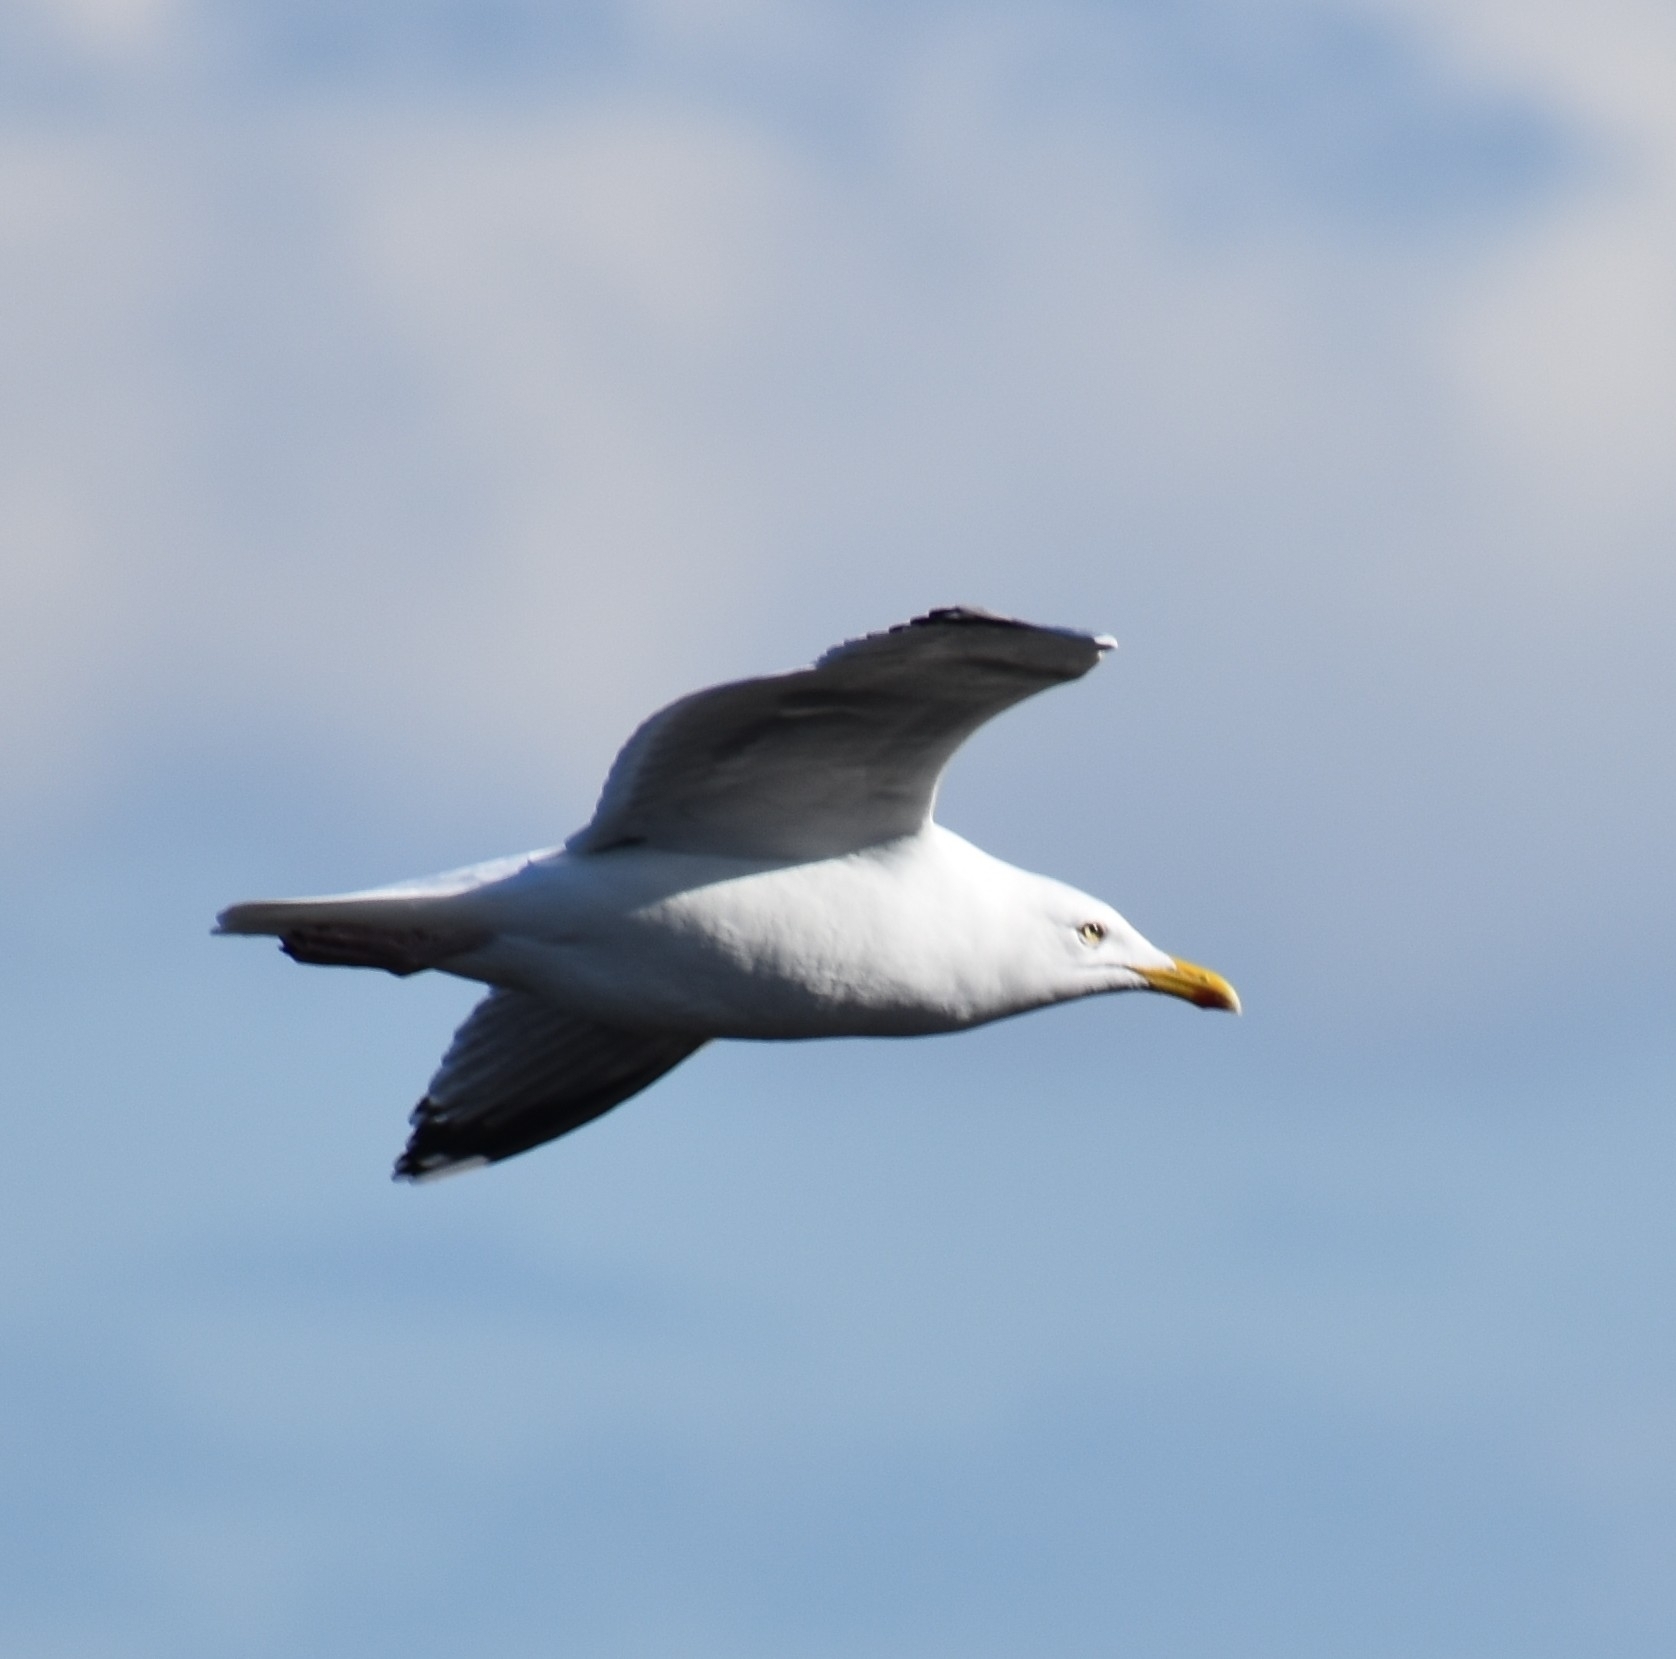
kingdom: Animalia
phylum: Chordata
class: Aves
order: Charadriiformes
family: Laridae
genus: Larus
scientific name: Larus argentatus
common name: Herring gull
